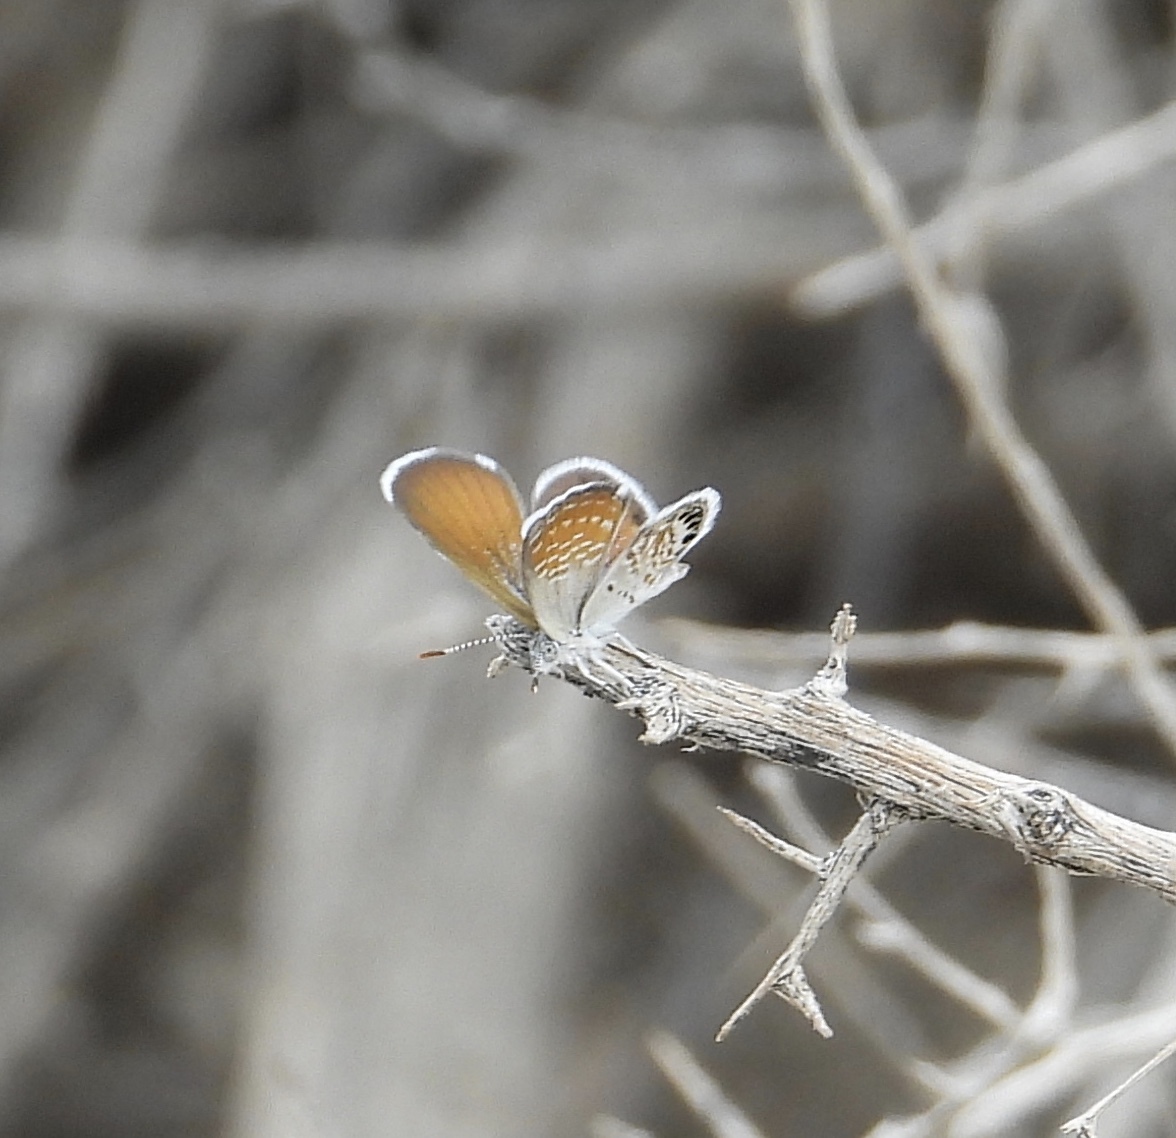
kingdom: Animalia
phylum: Arthropoda
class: Insecta
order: Lepidoptera
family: Lycaenidae
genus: Brephidium
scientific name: Brephidium exilis
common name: Pygmy blue
